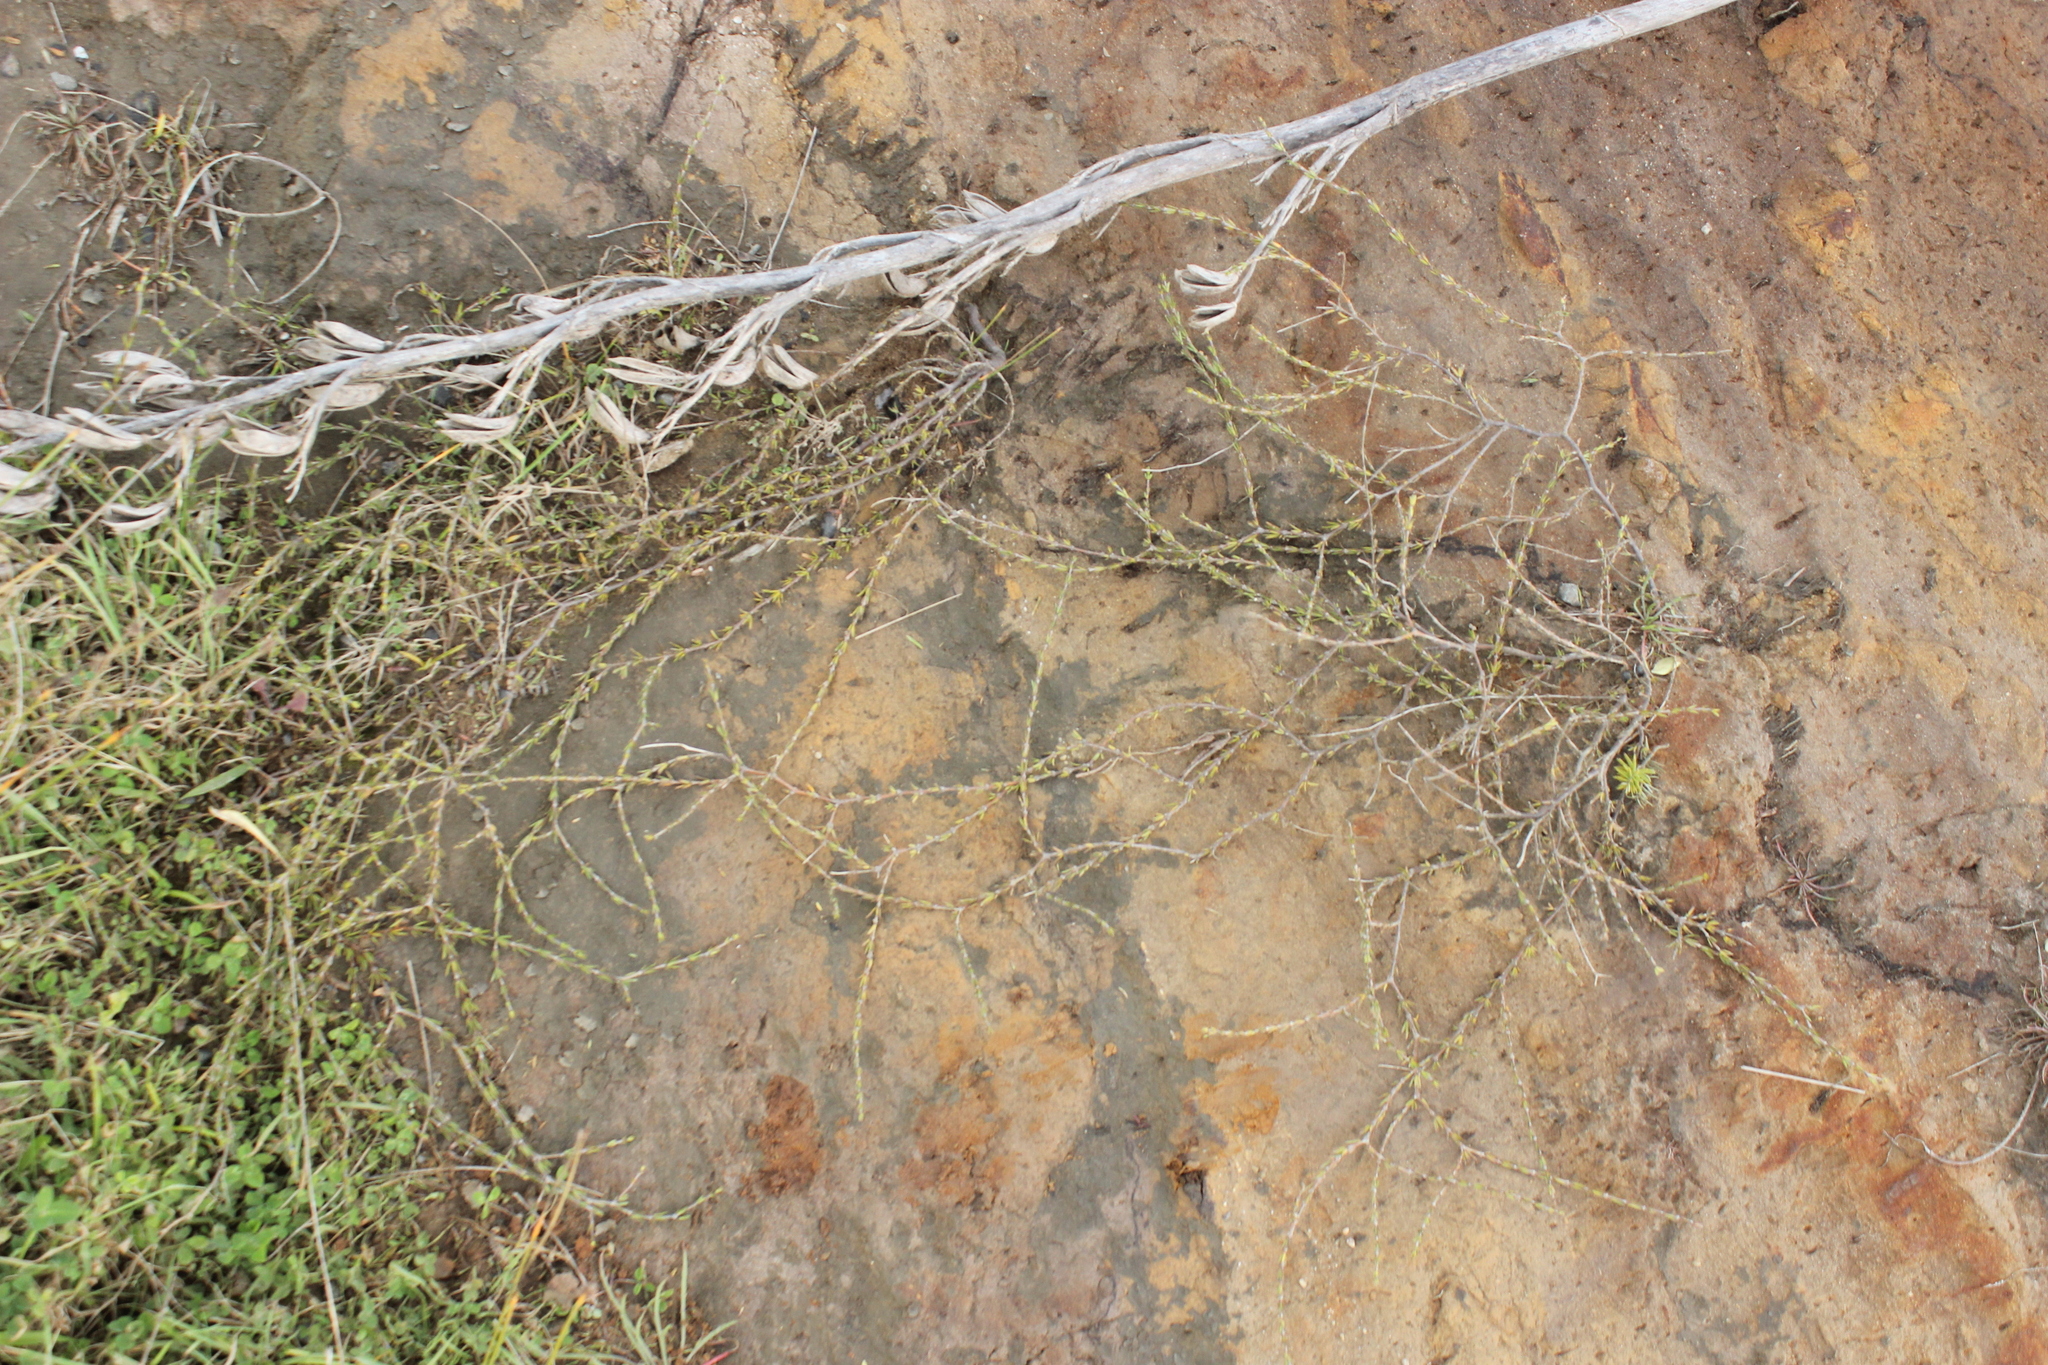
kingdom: Plantae
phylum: Tracheophyta
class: Magnoliopsida
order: Gentianales
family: Rubiaceae
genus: Coprosma
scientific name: Coprosma acerosa
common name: Sand coprosma
